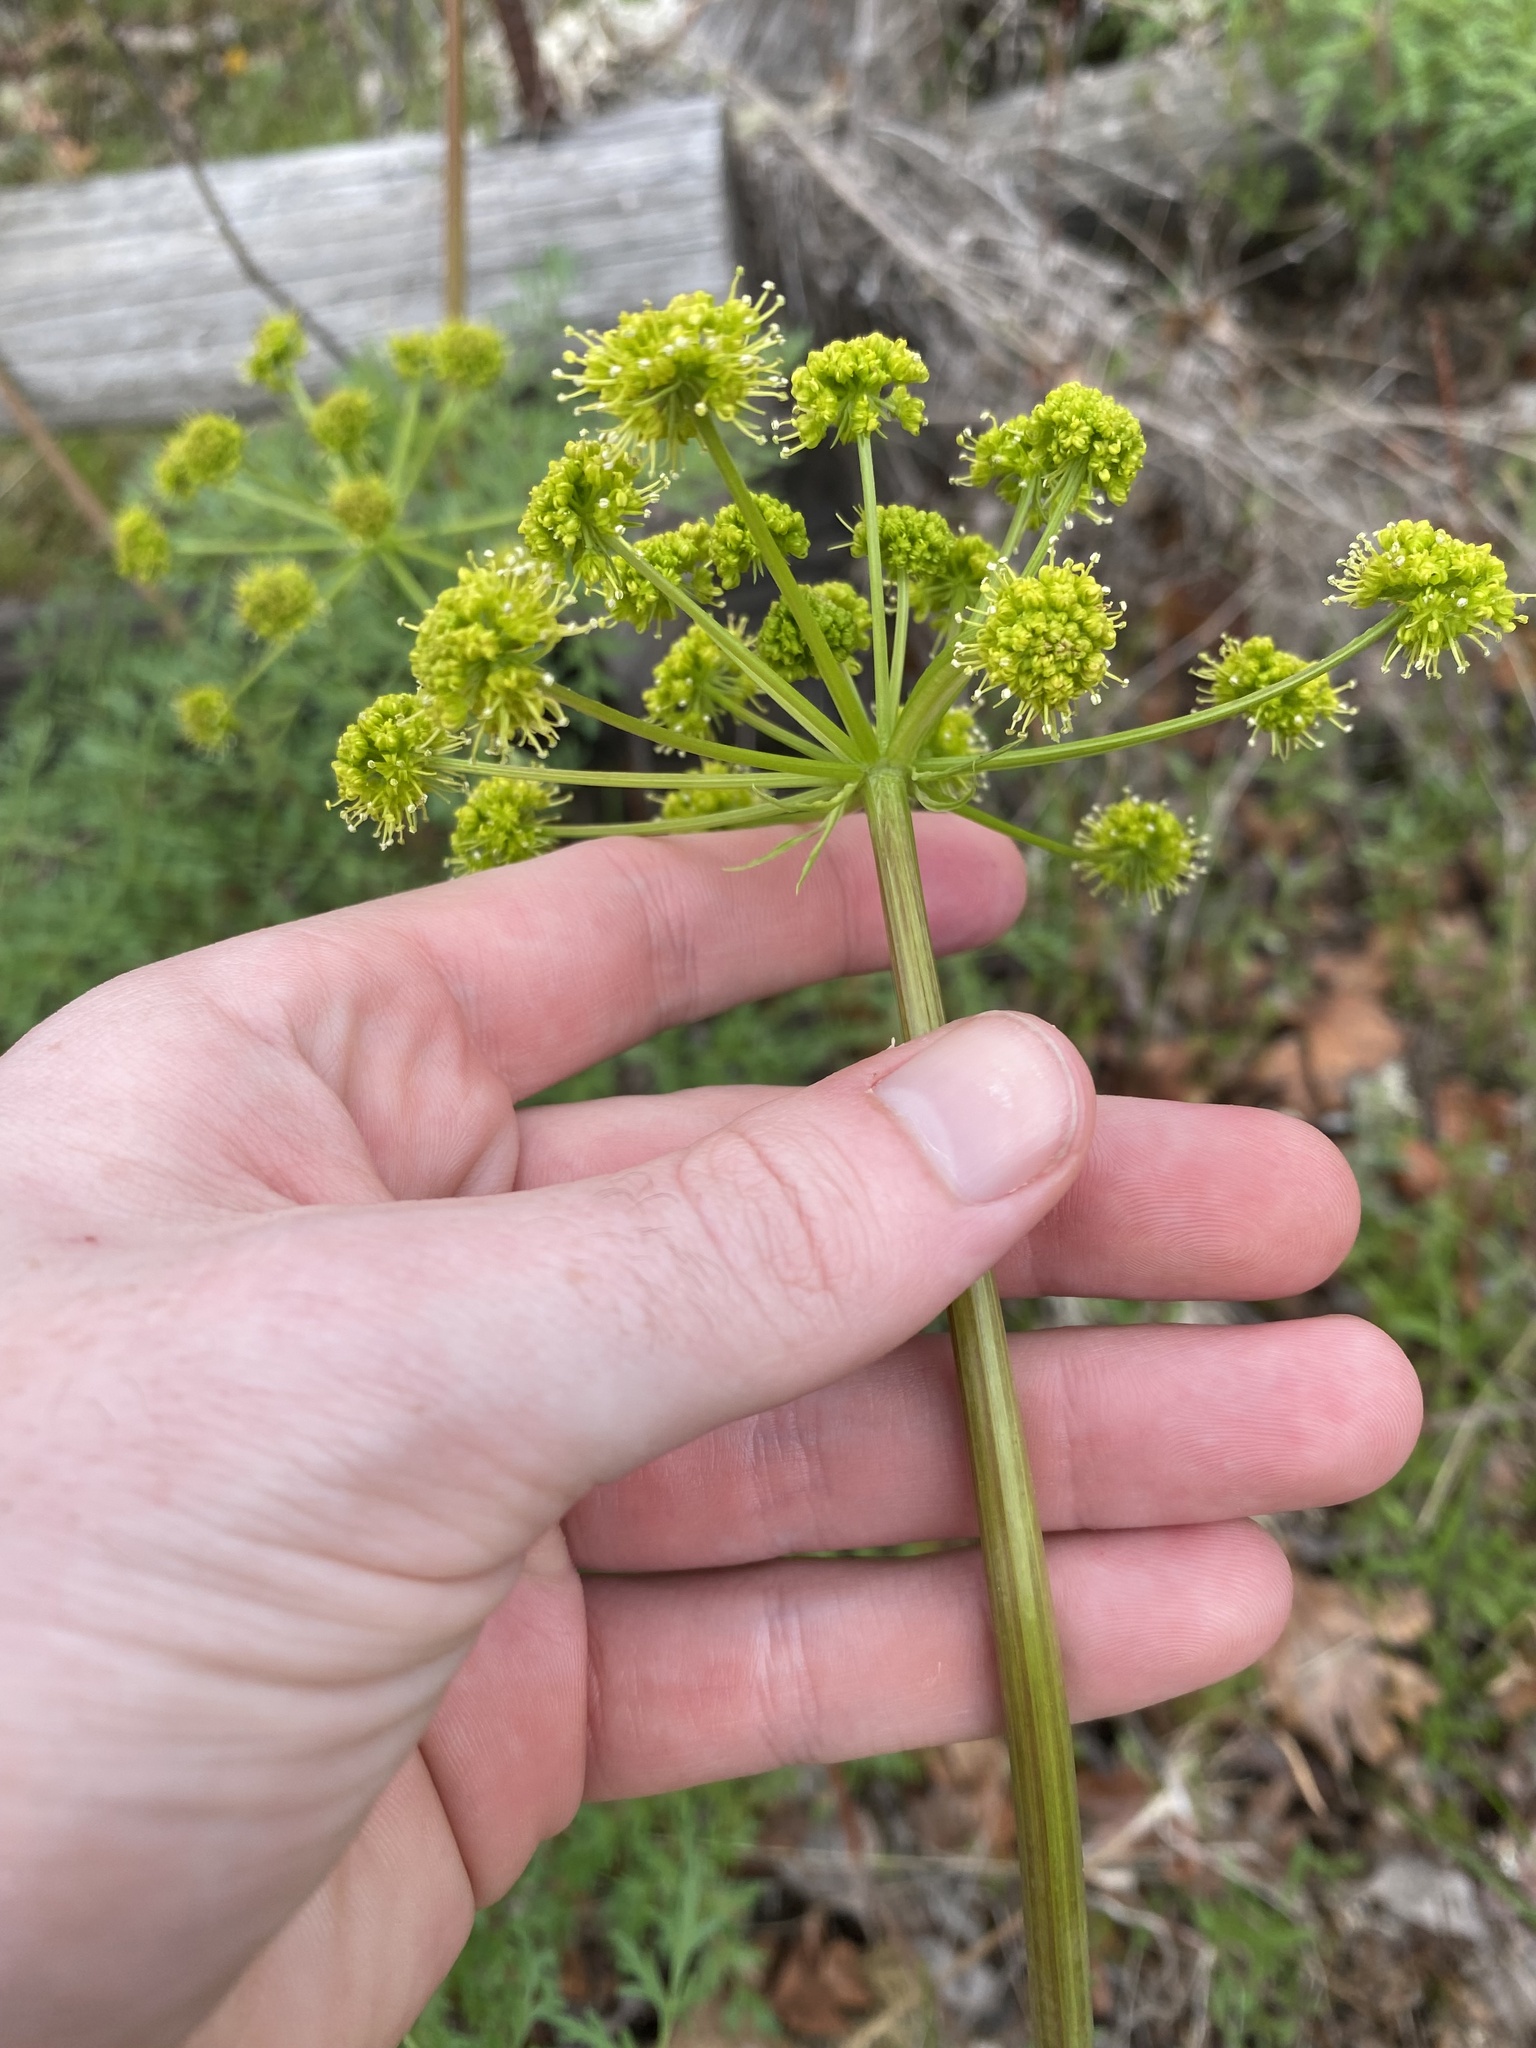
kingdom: Plantae
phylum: Tracheophyta
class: Magnoliopsida
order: Apiales
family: Apiaceae
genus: Lomatium
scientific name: Lomatium multifidum
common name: Carrot-leaved biscuitroot
